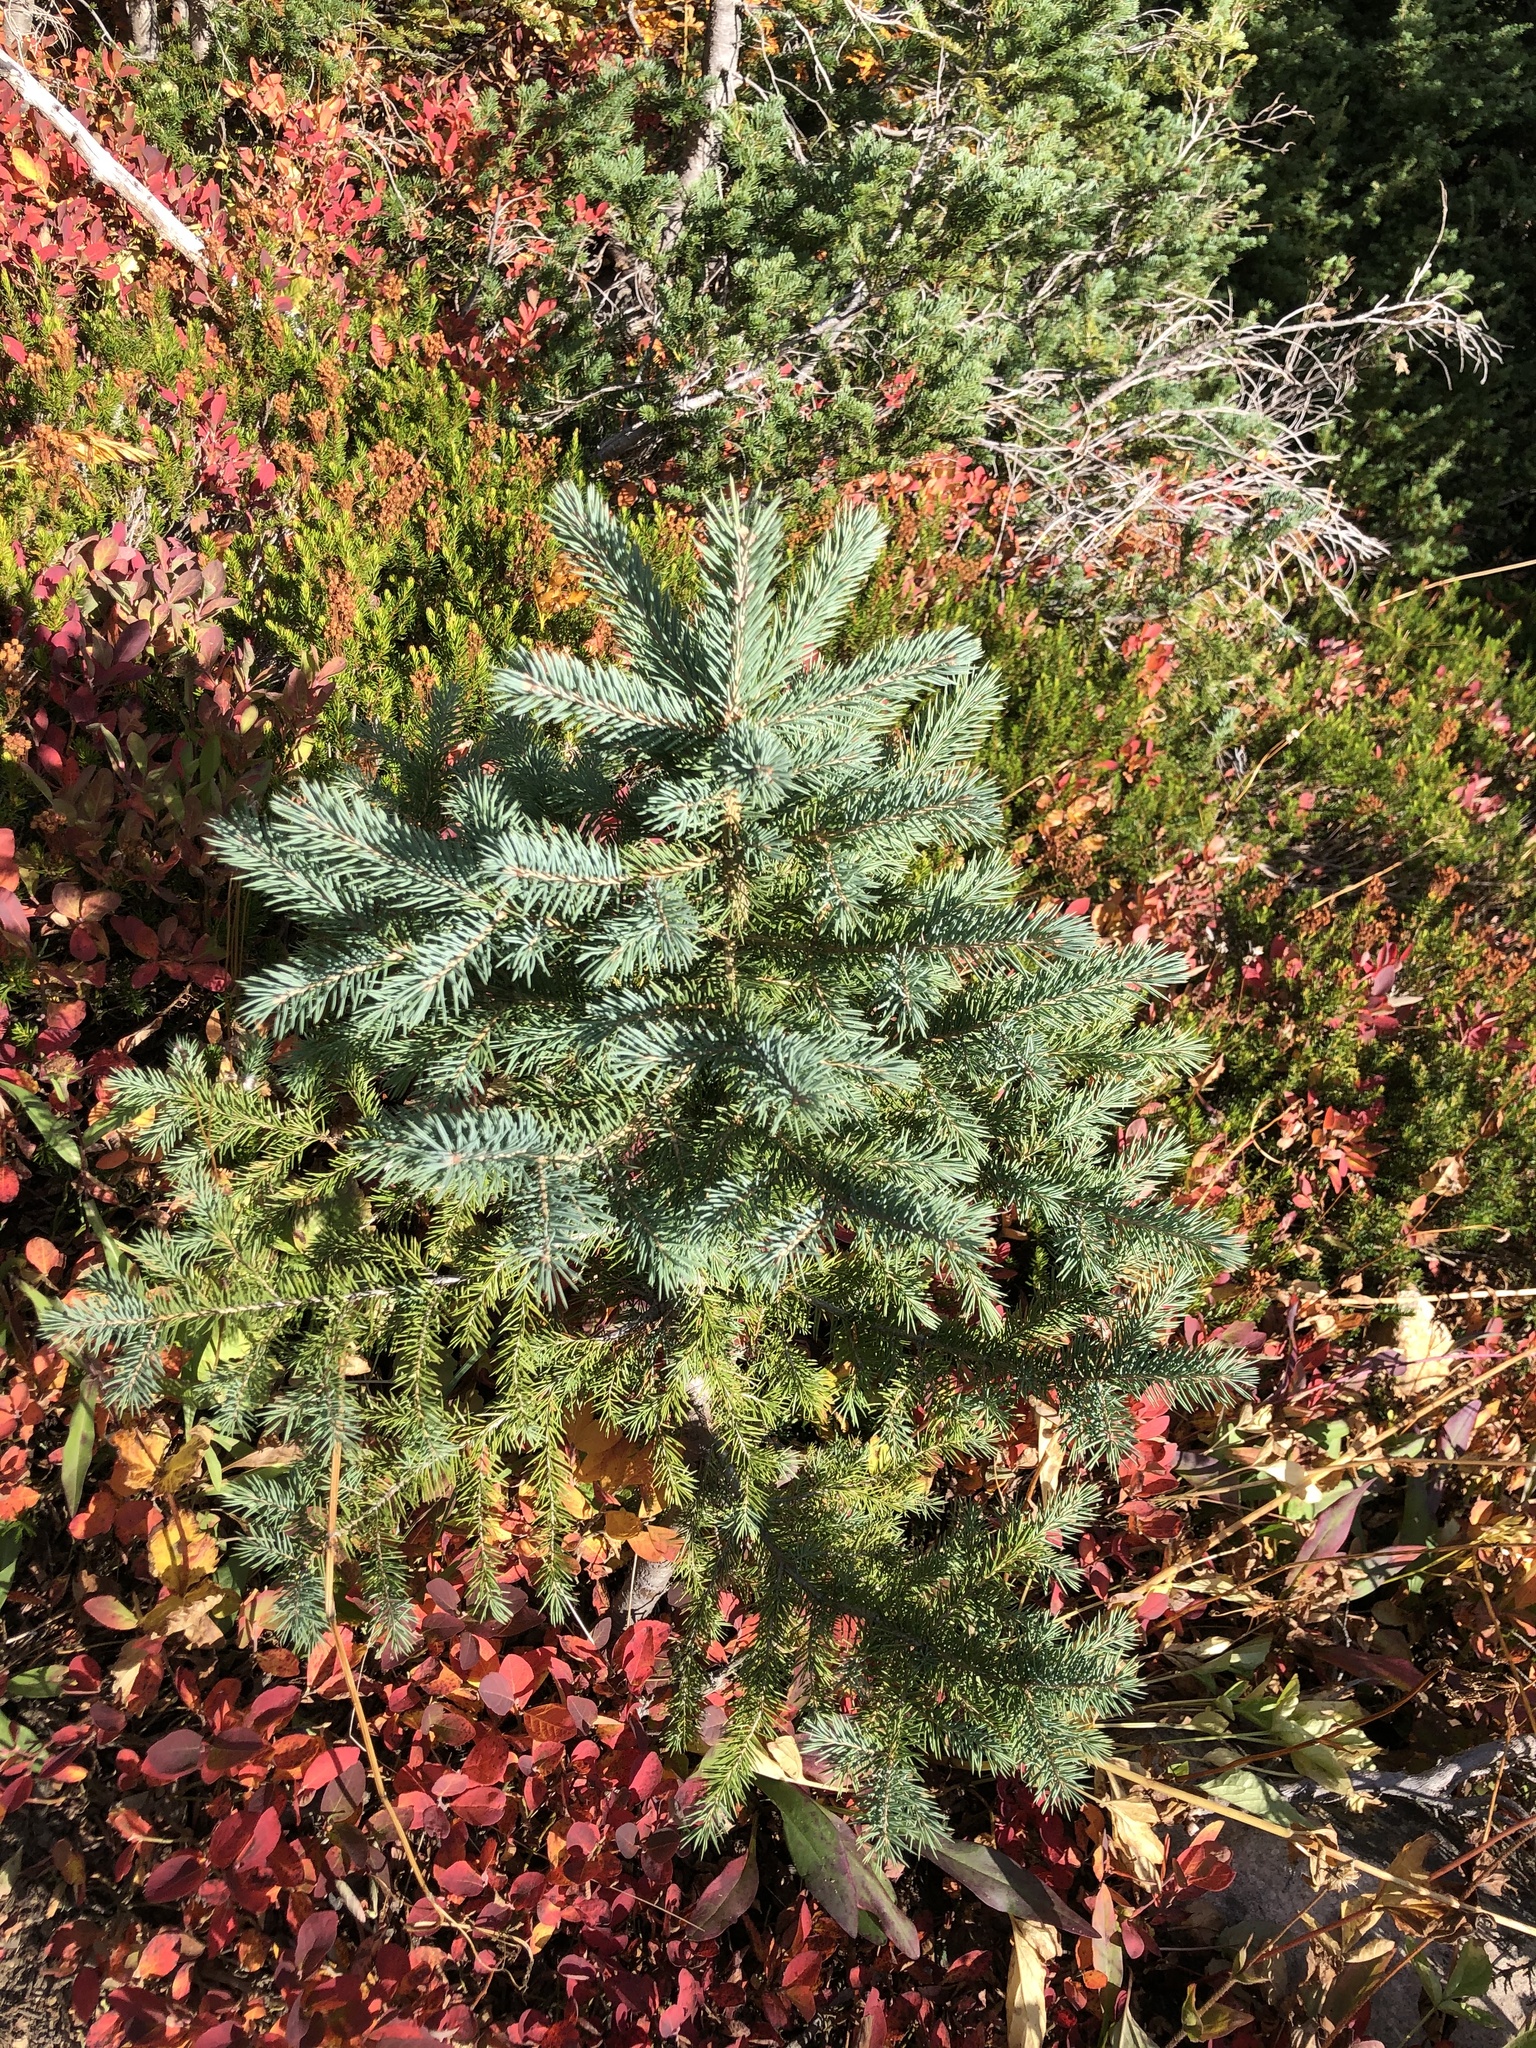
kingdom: Plantae
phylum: Tracheophyta
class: Pinopsida
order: Pinales
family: Pinaceae
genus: Picea
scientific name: Picea engelmannii
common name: Engelmann spruce
